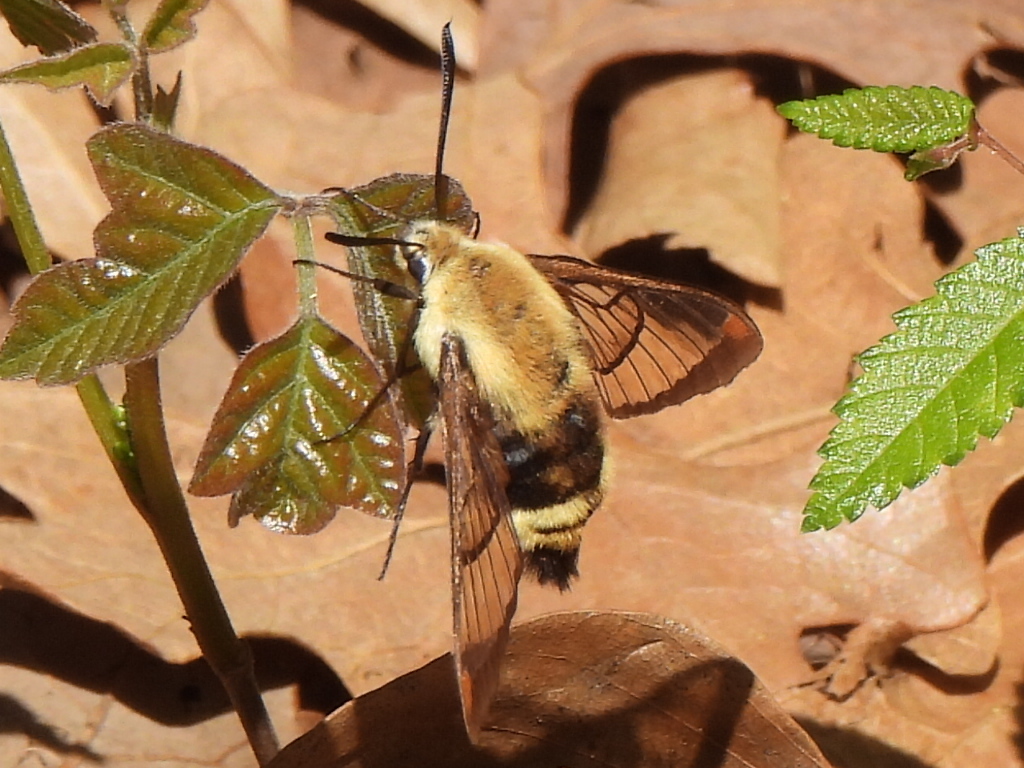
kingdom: Animalia
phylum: Arthropoda
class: Insecta
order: Lepidoptera
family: Sphingidae
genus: Hemaris
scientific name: Hemaris diffinis
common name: Bumblebee moth
